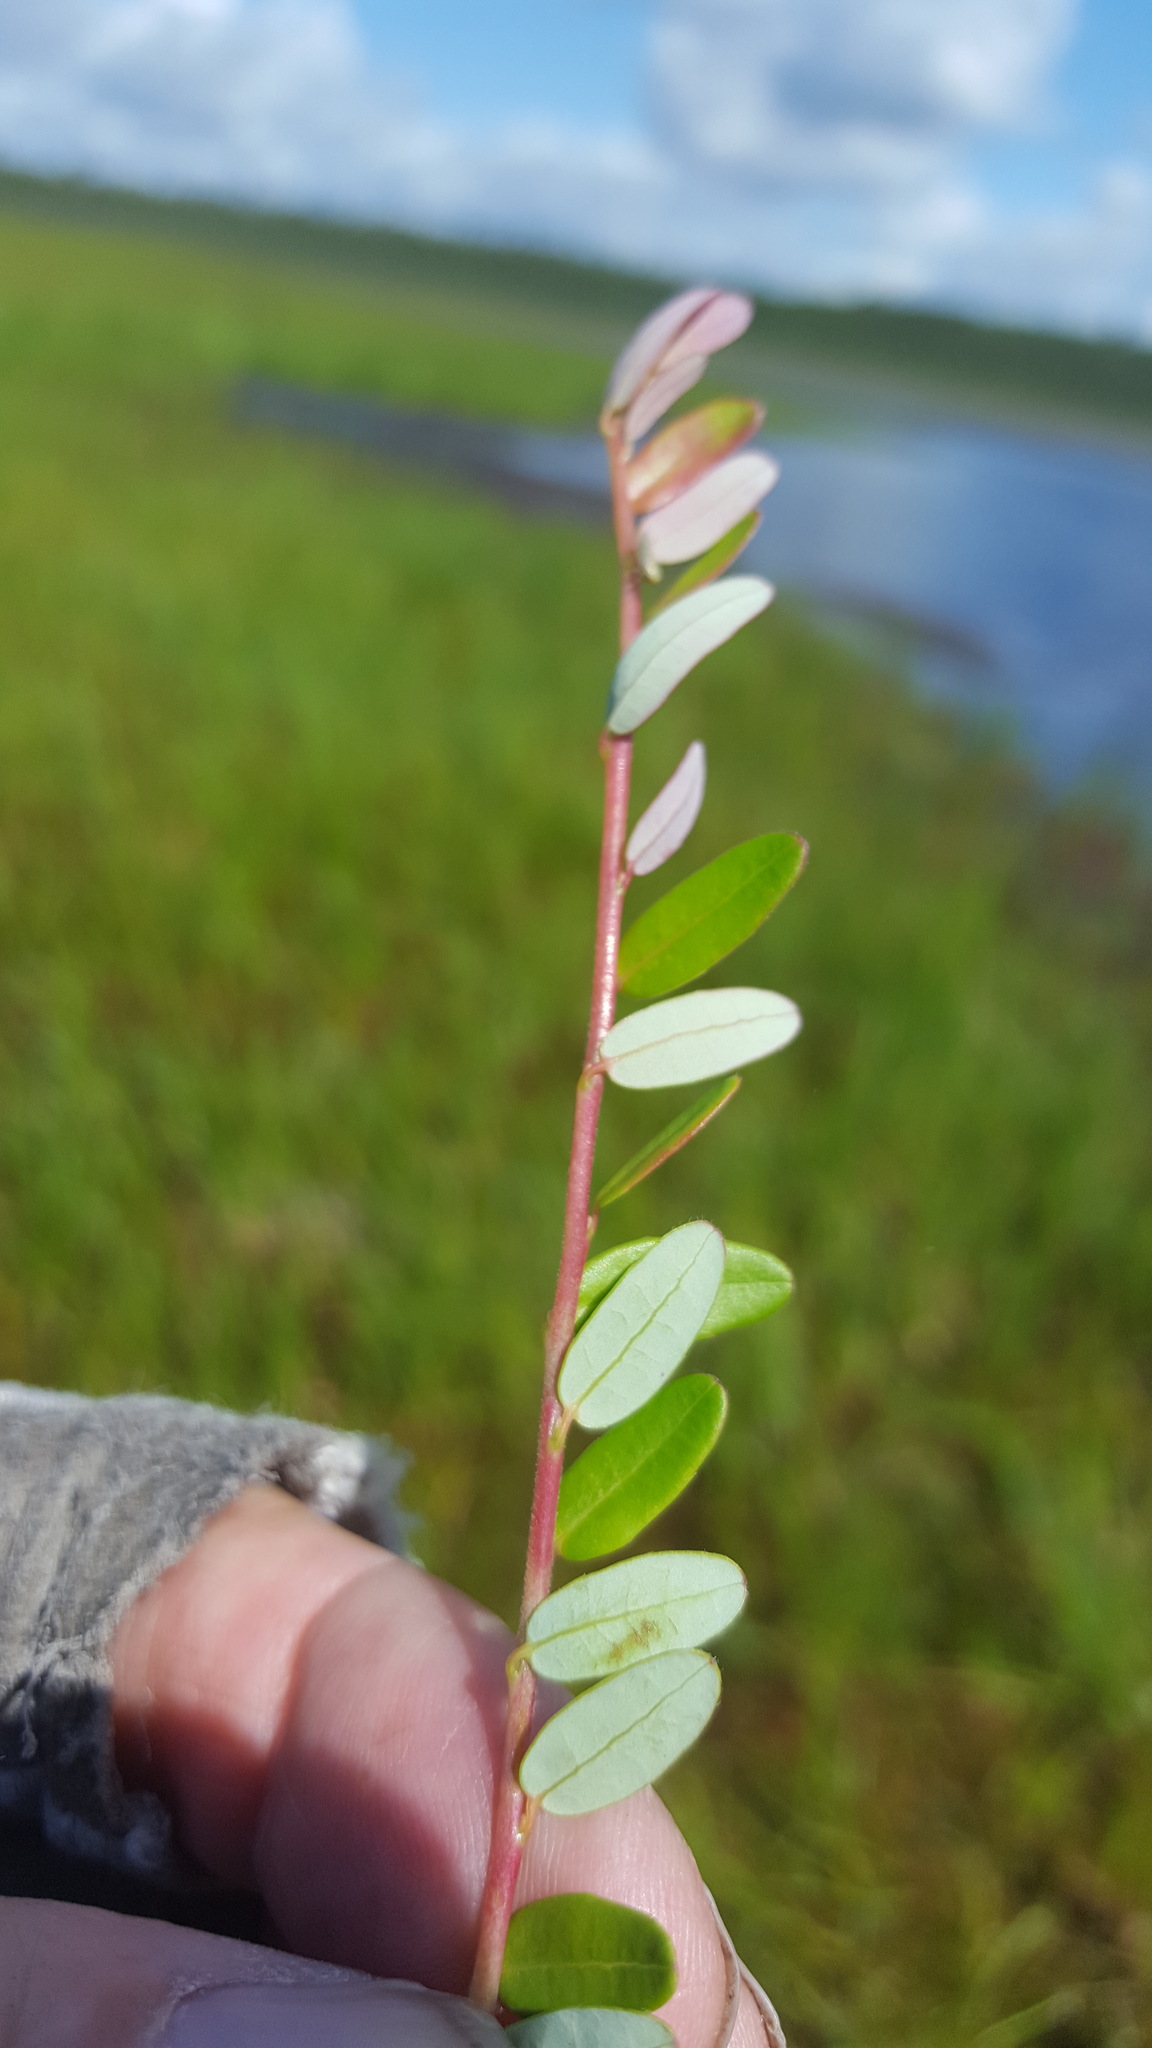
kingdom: Plantae
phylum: Tracheophyta
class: Magnoliopsida
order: Ericales
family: Ericaceae
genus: Vaccinium
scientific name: Vaccinium macrocarpon
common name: American cranberry
